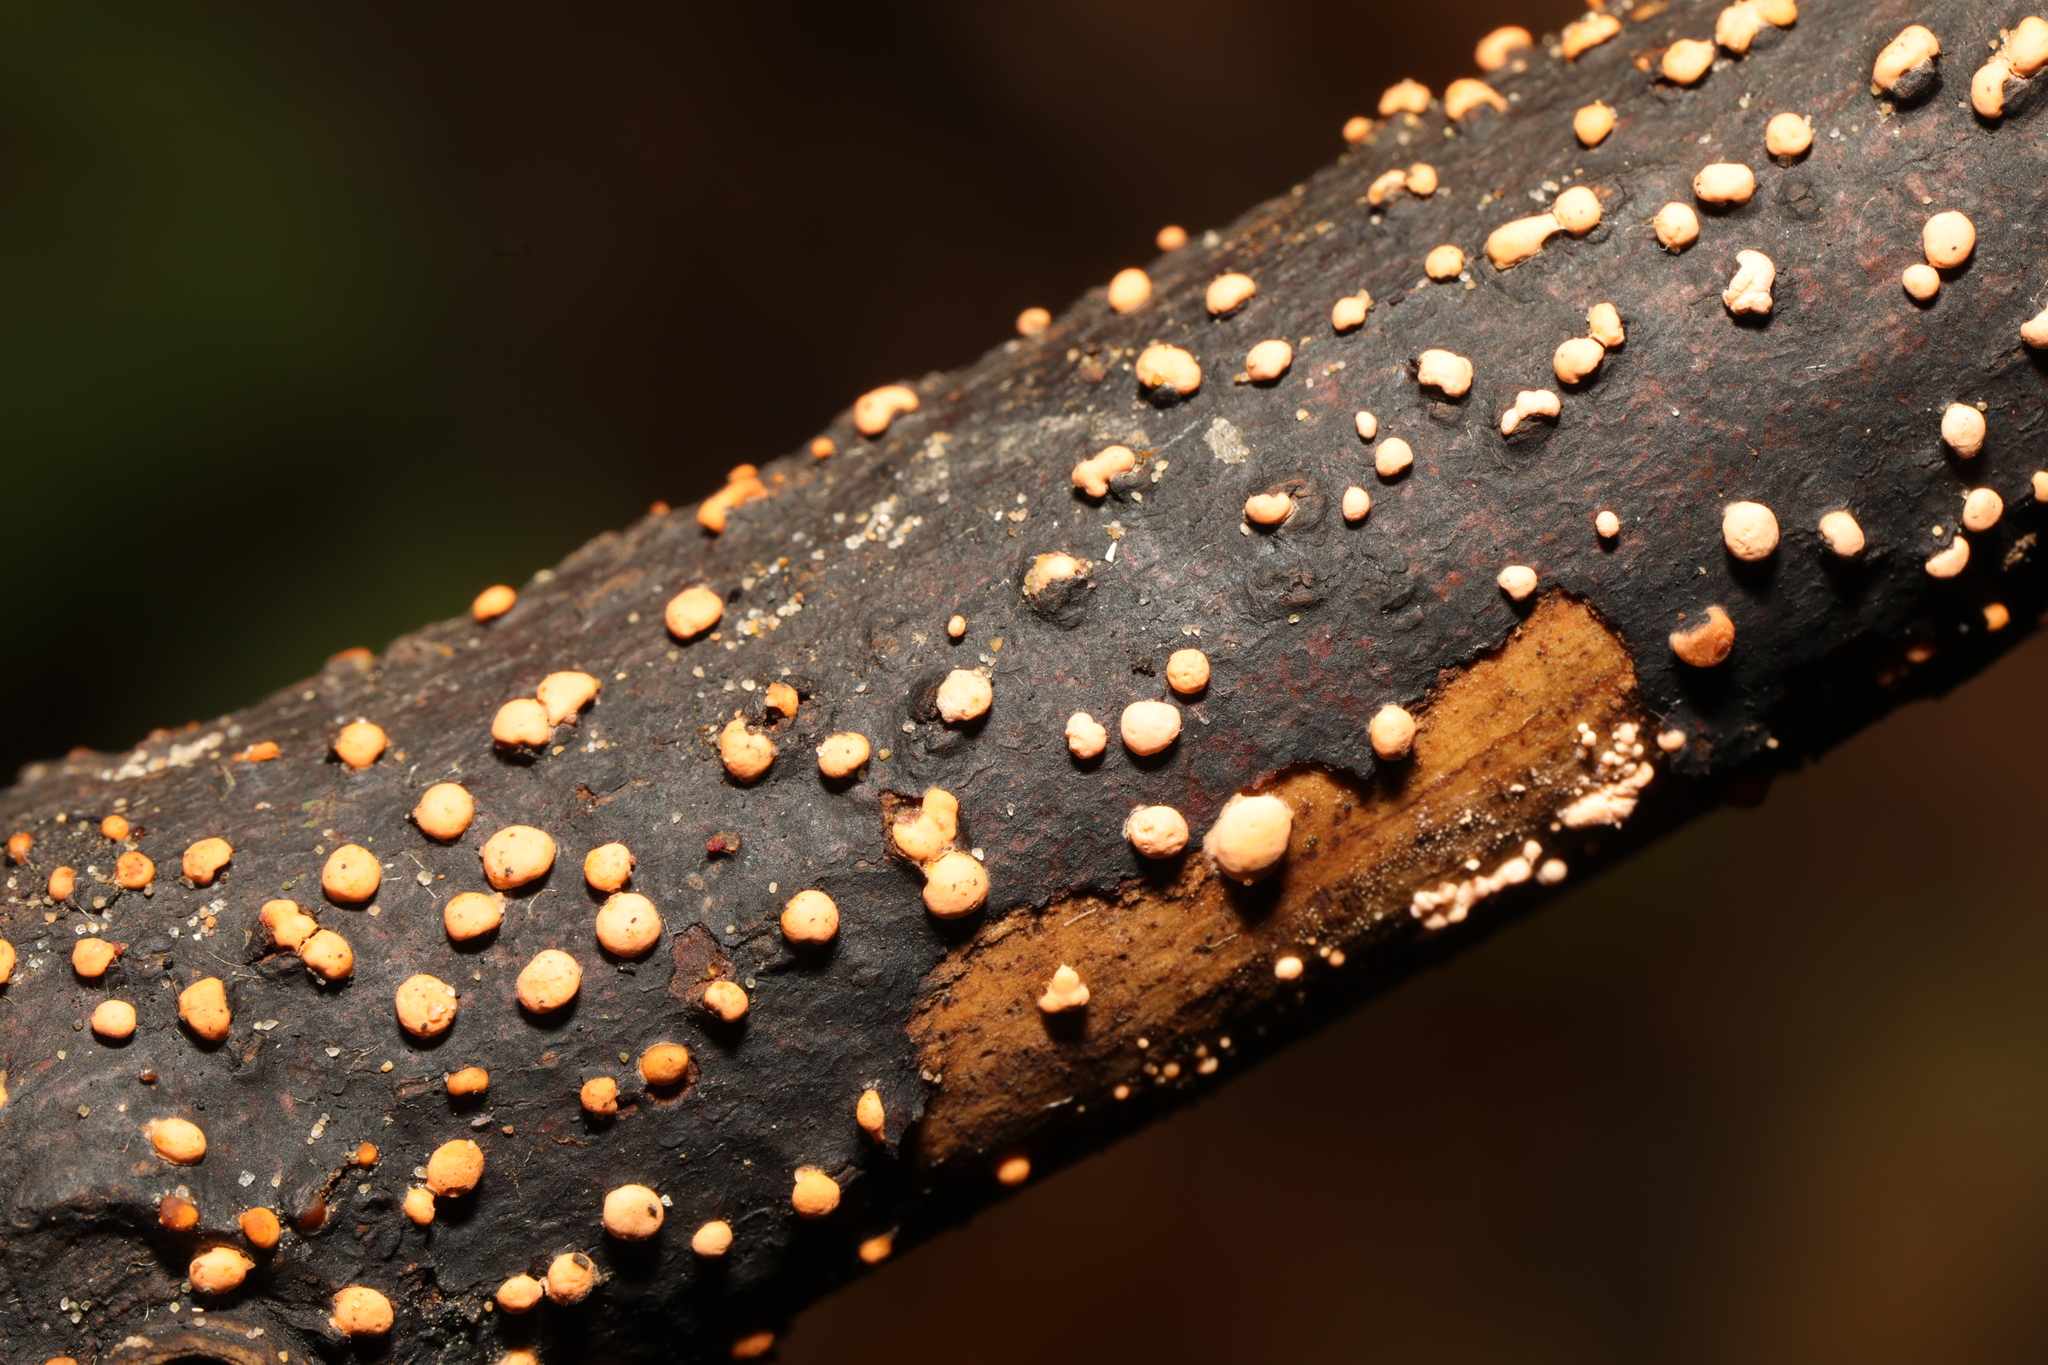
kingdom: Fungi
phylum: Ascomycota
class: Sordariomycetes
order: Hypocreales
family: Nectriaceae
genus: Nectria
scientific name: Nectria cinnabarina
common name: Coral spot
